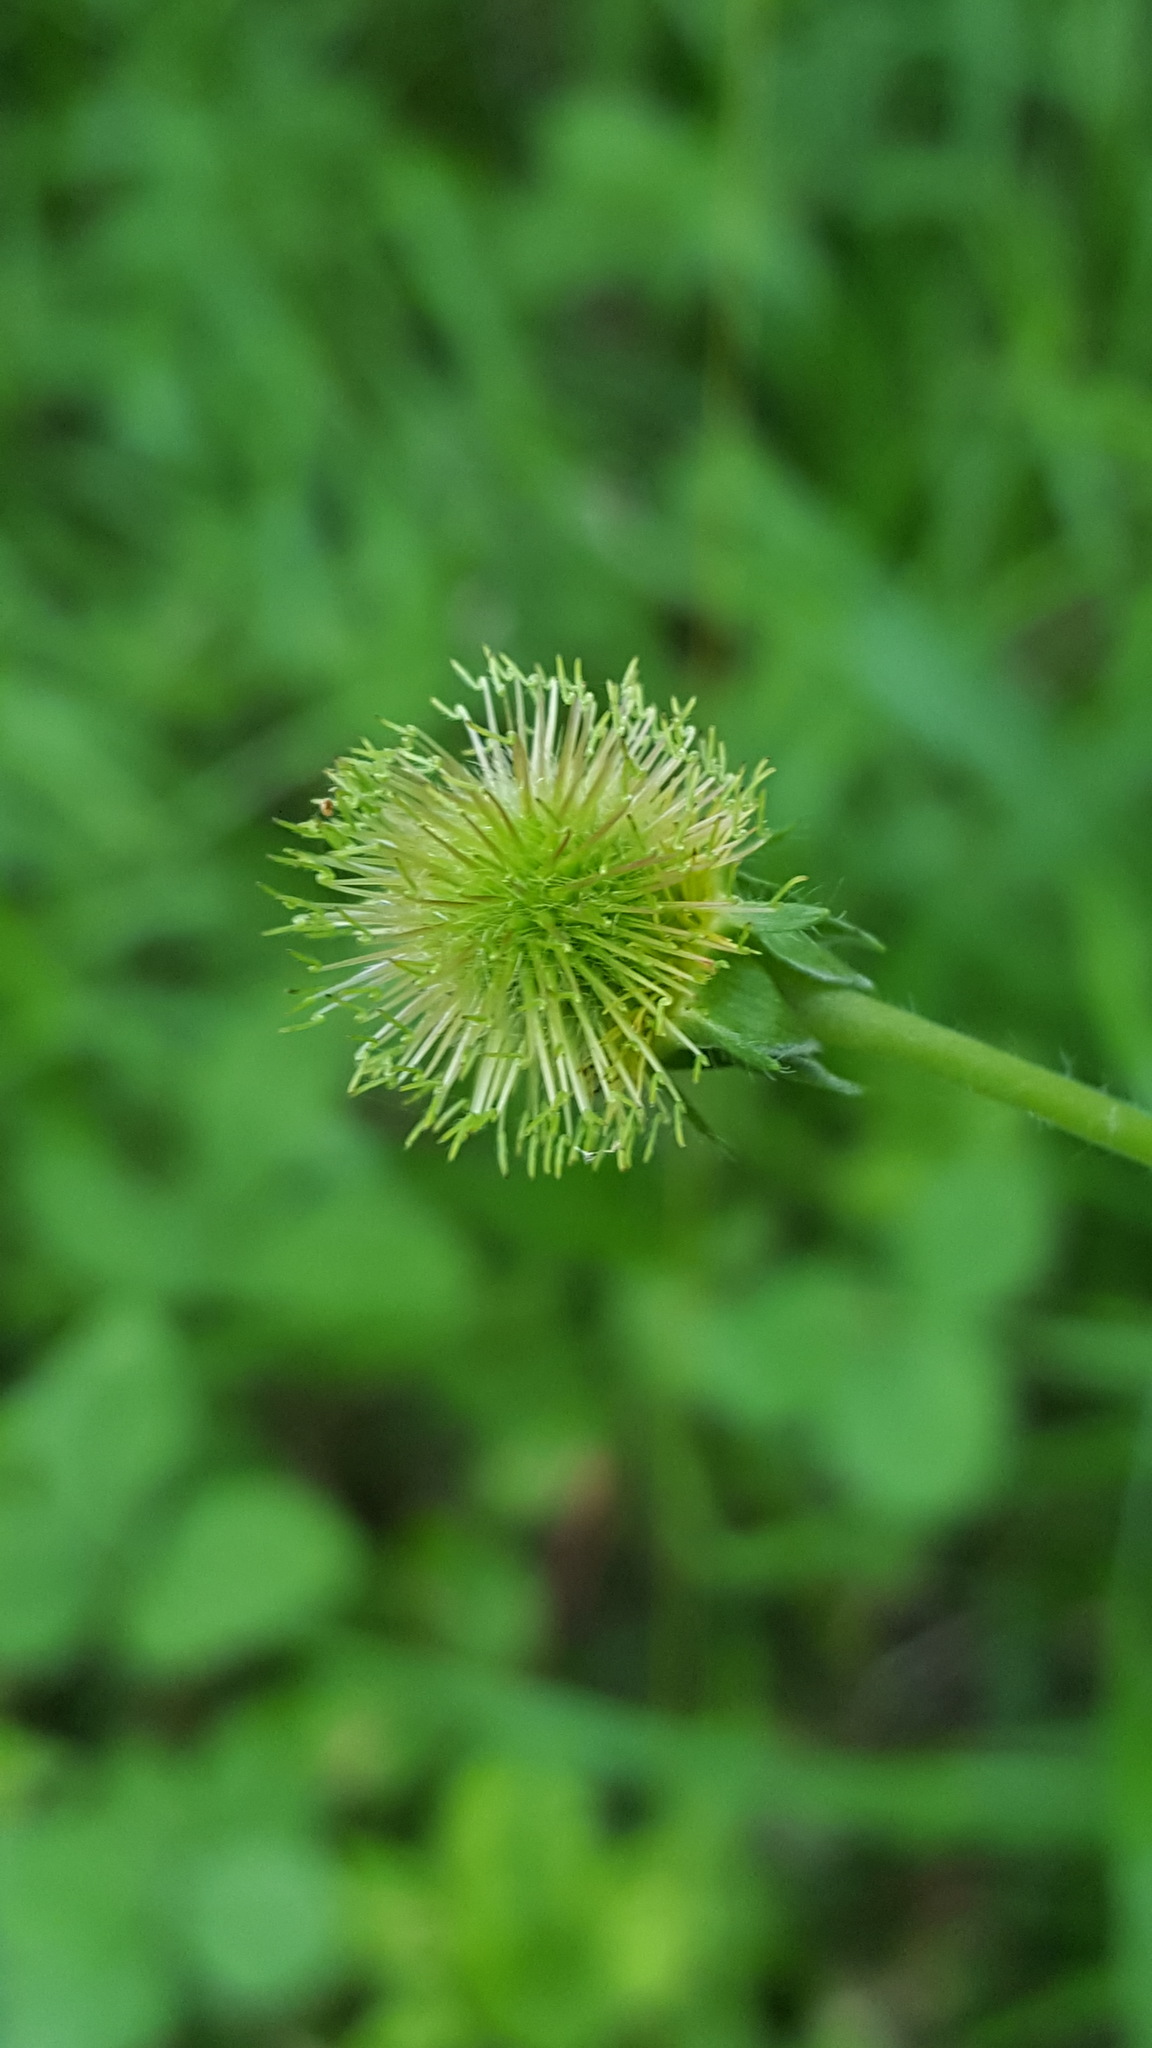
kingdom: Plantae
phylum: Tracheophyta
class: Magnoliopsida
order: Rosales
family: Rosaceae
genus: Geum
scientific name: Geum aleppicum
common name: Yellow avens
